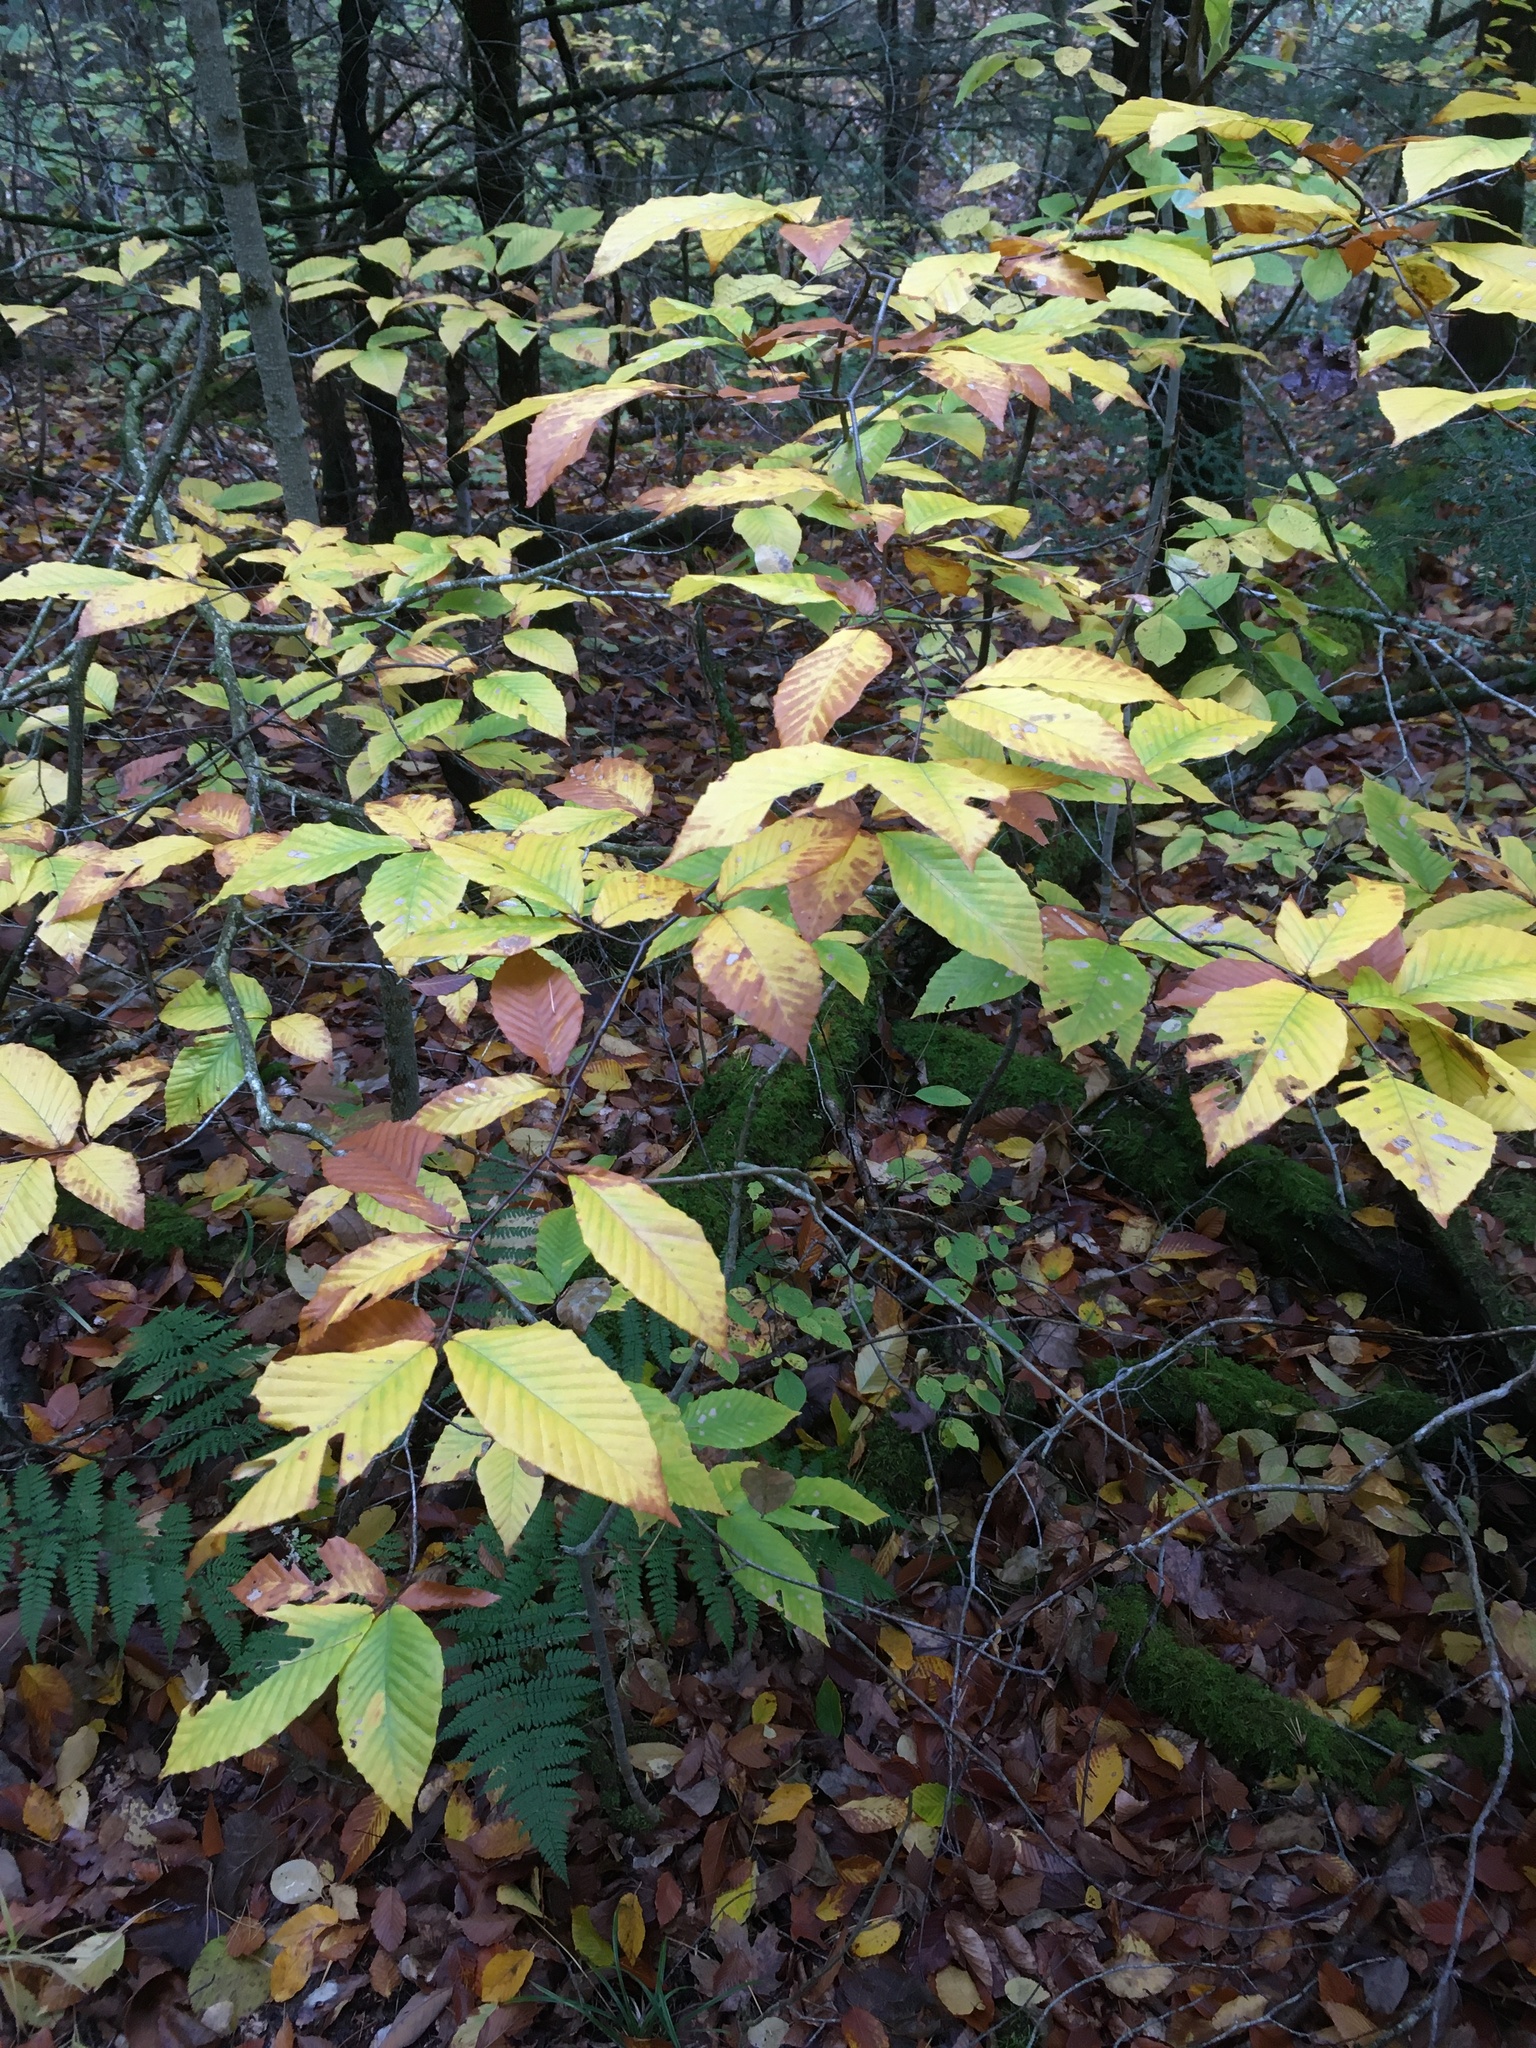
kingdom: Plantae
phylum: Tracheophyta
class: Magnoliopsida
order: Fagales
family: Fagaceae
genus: Fagus
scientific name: Fagus grandifolia
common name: American beech
